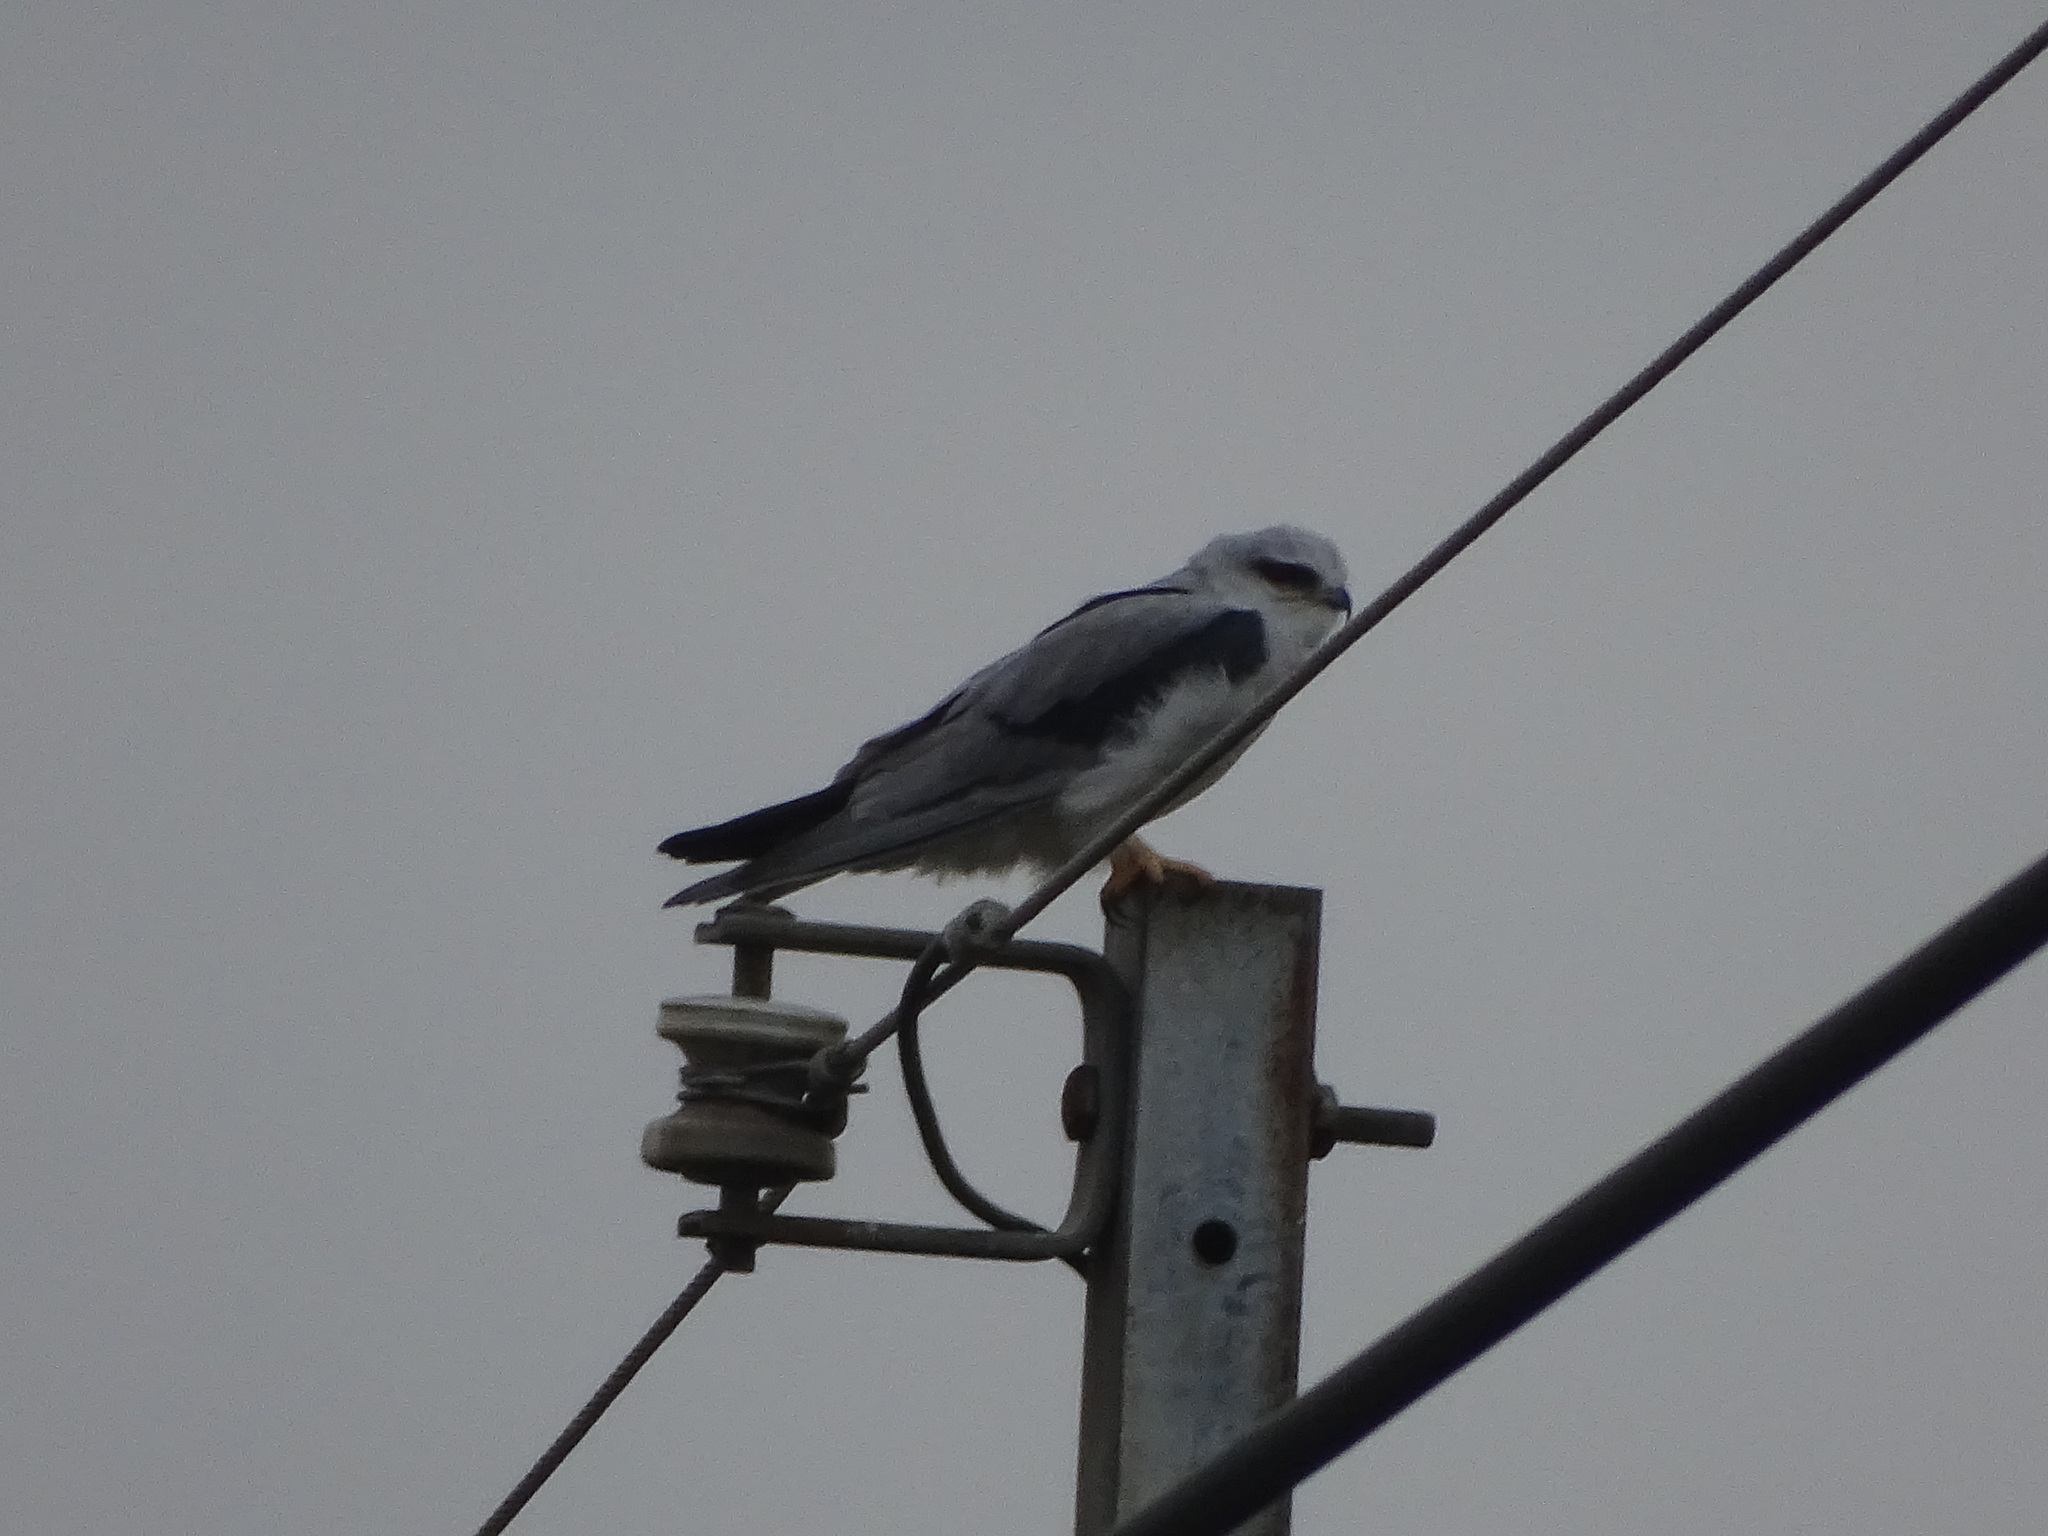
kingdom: Animalia
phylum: Chordata
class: Aves
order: Accipitriformes
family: Accipitridae
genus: Elanus
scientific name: Elanus caeruleus
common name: Black-winged kite
